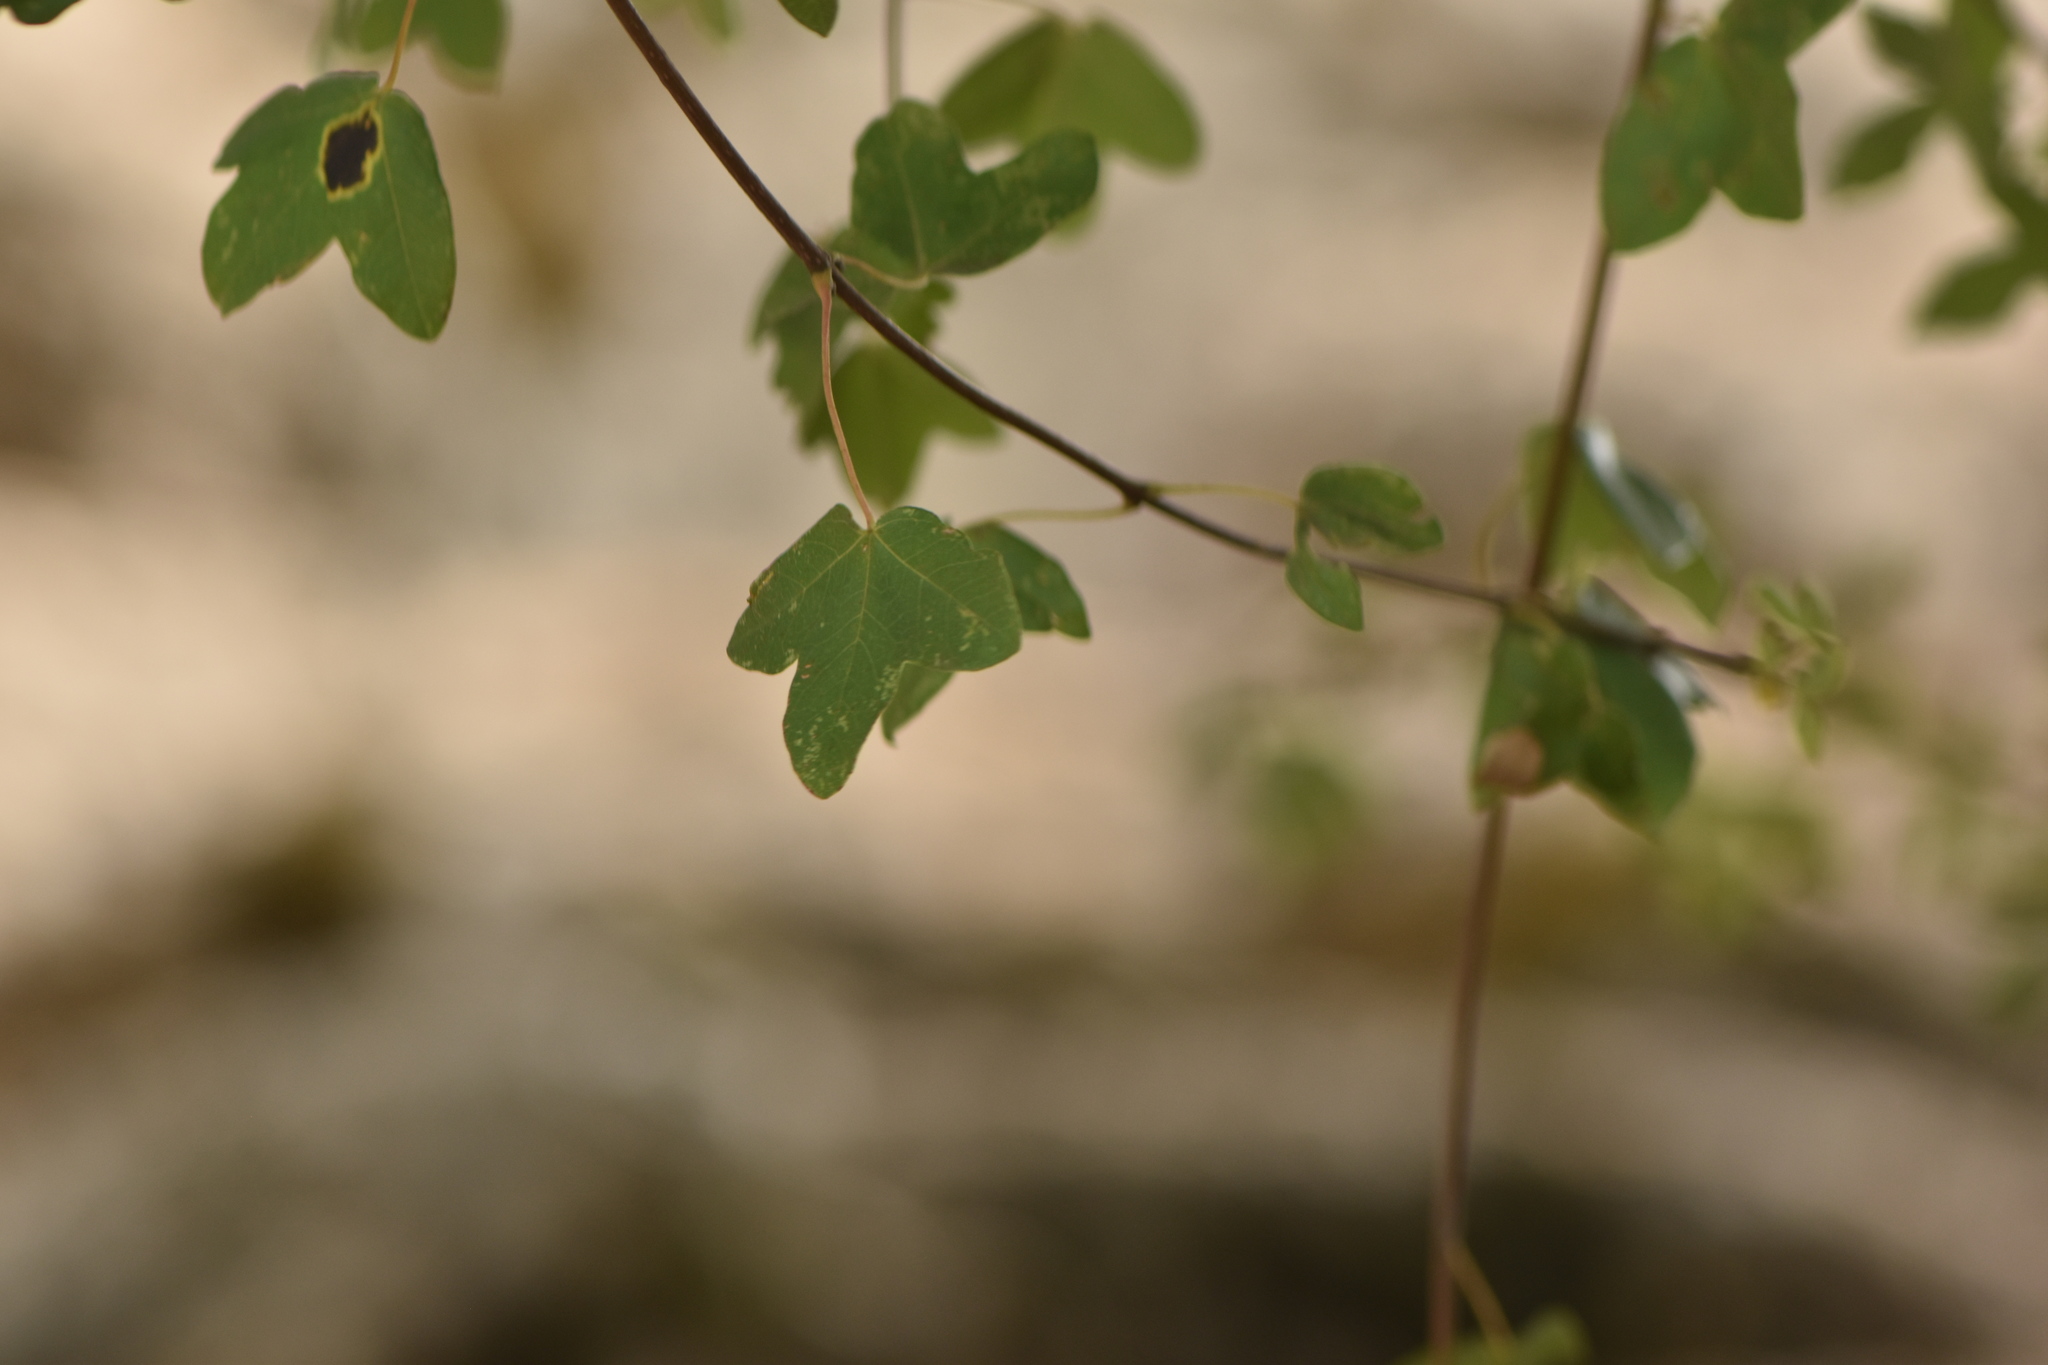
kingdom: Plantae
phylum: Tracheophyta
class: Magnoliopsida
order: Sapindales
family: Sapindaceae
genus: Acer
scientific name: Acer monspessulanum
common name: Montpellier maple
